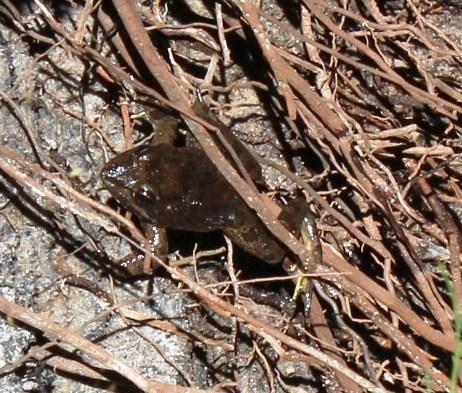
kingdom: Animalia
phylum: Chordata
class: Amphibia
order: Anura
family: Pyxicephalidae
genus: Amietia
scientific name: Amietia fuscigula
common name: Cape rana
